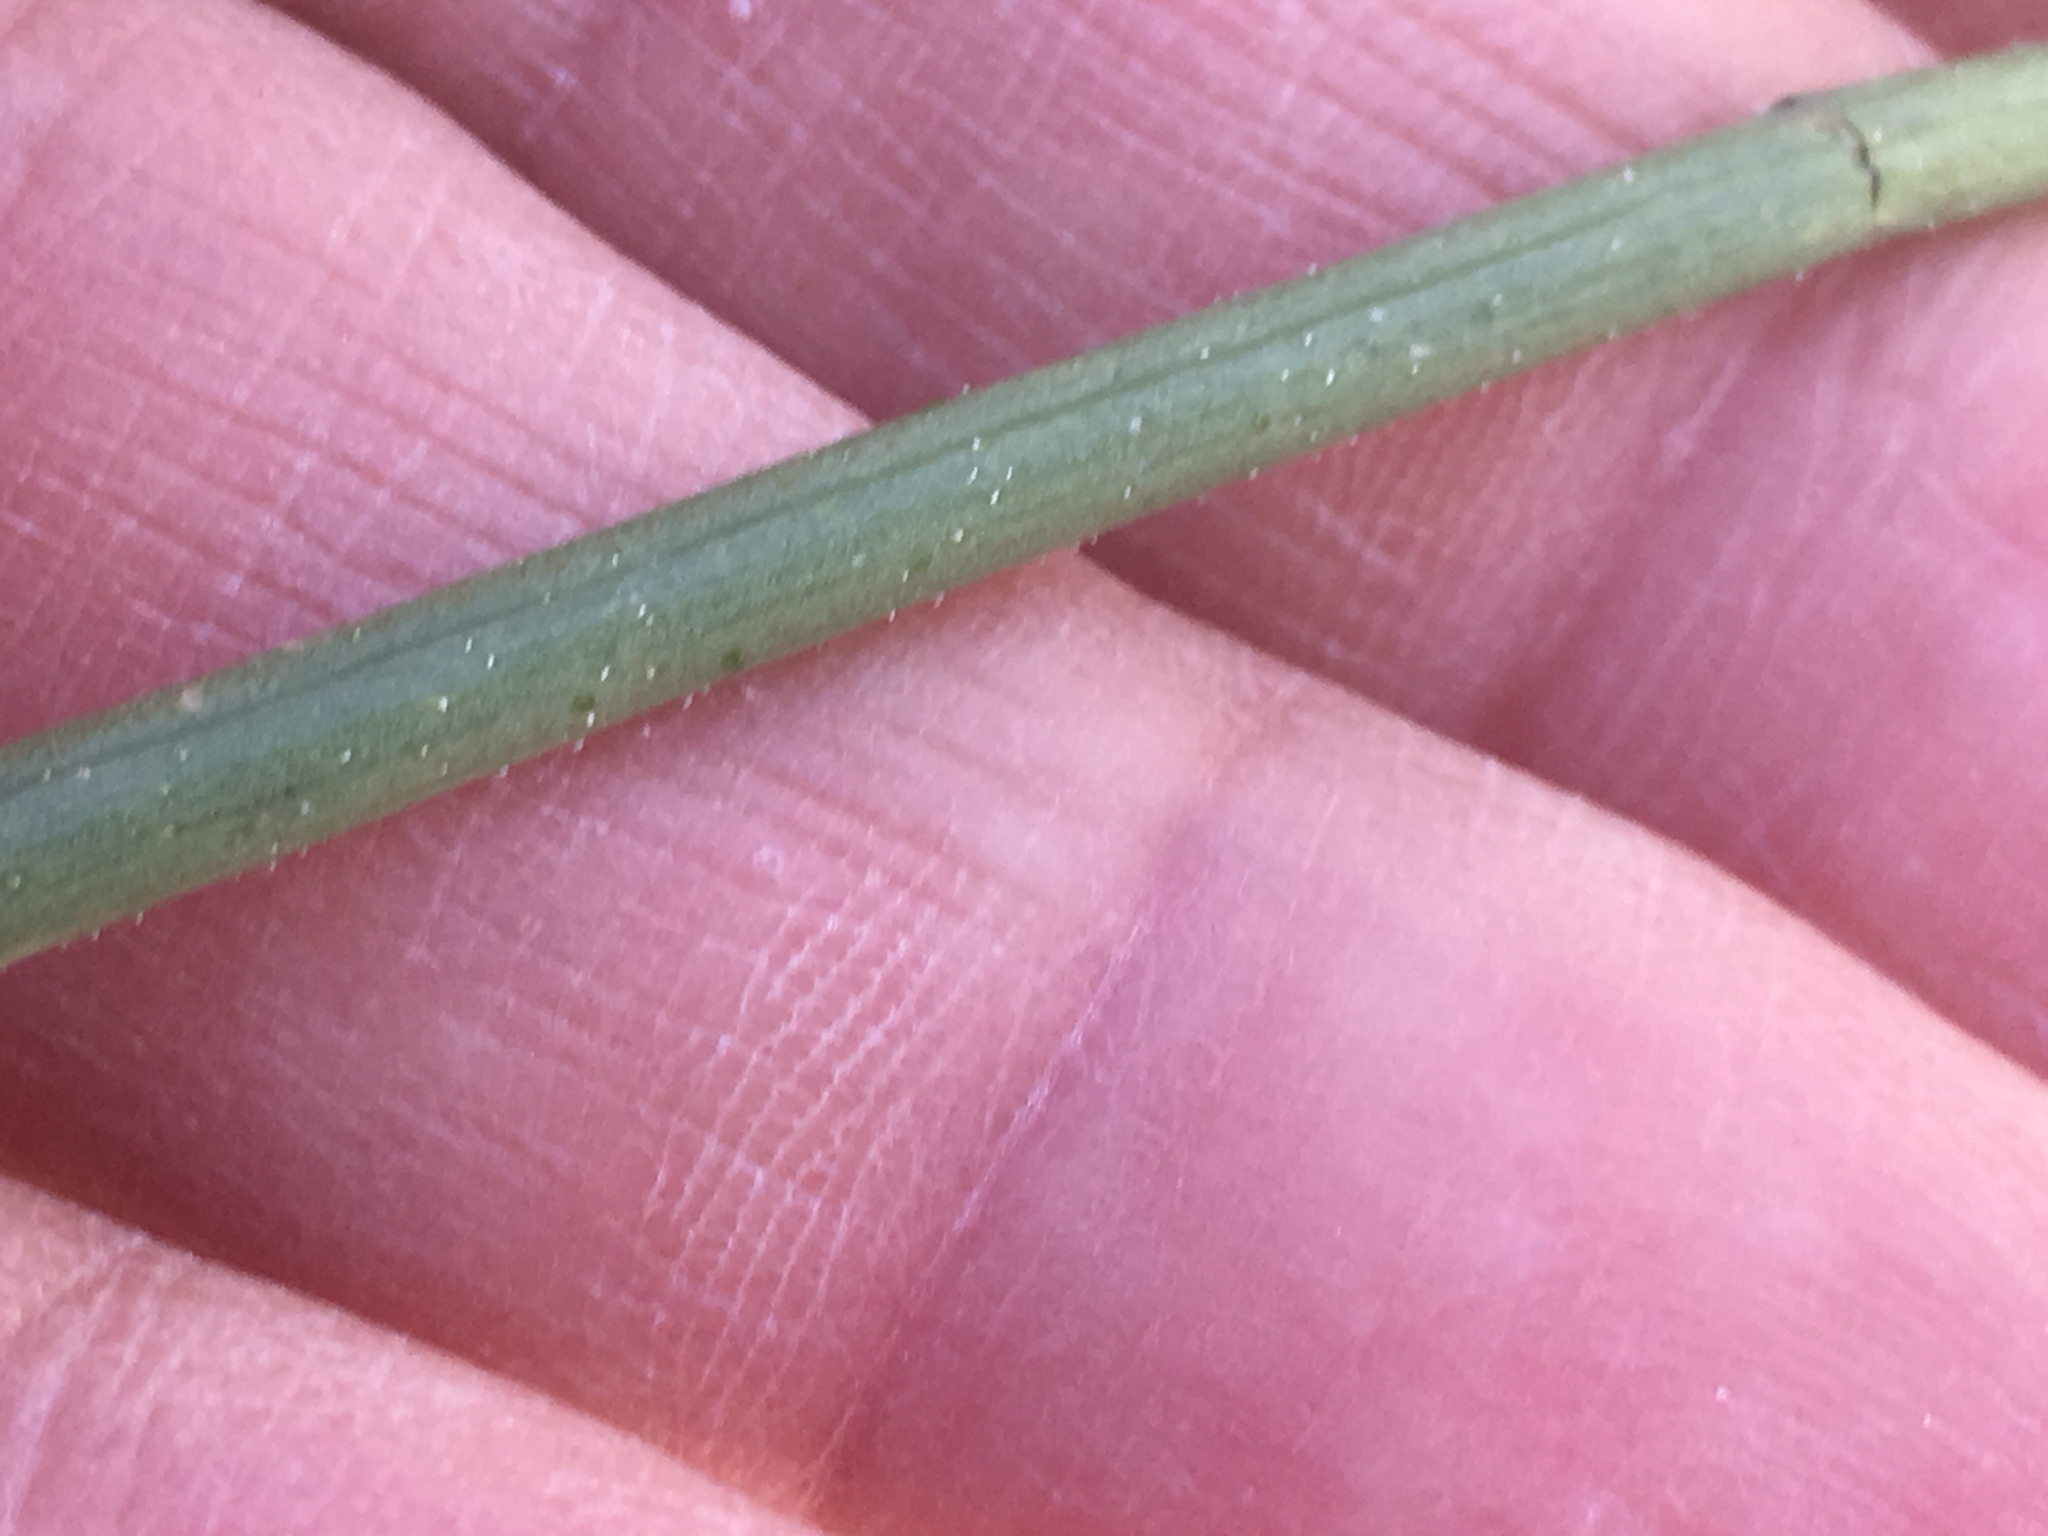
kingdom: Plantae
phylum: Tracheophyta
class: Magnoliopsida
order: Asterales
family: Asteraceae
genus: Bebbia
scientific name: Bebbia juncea
